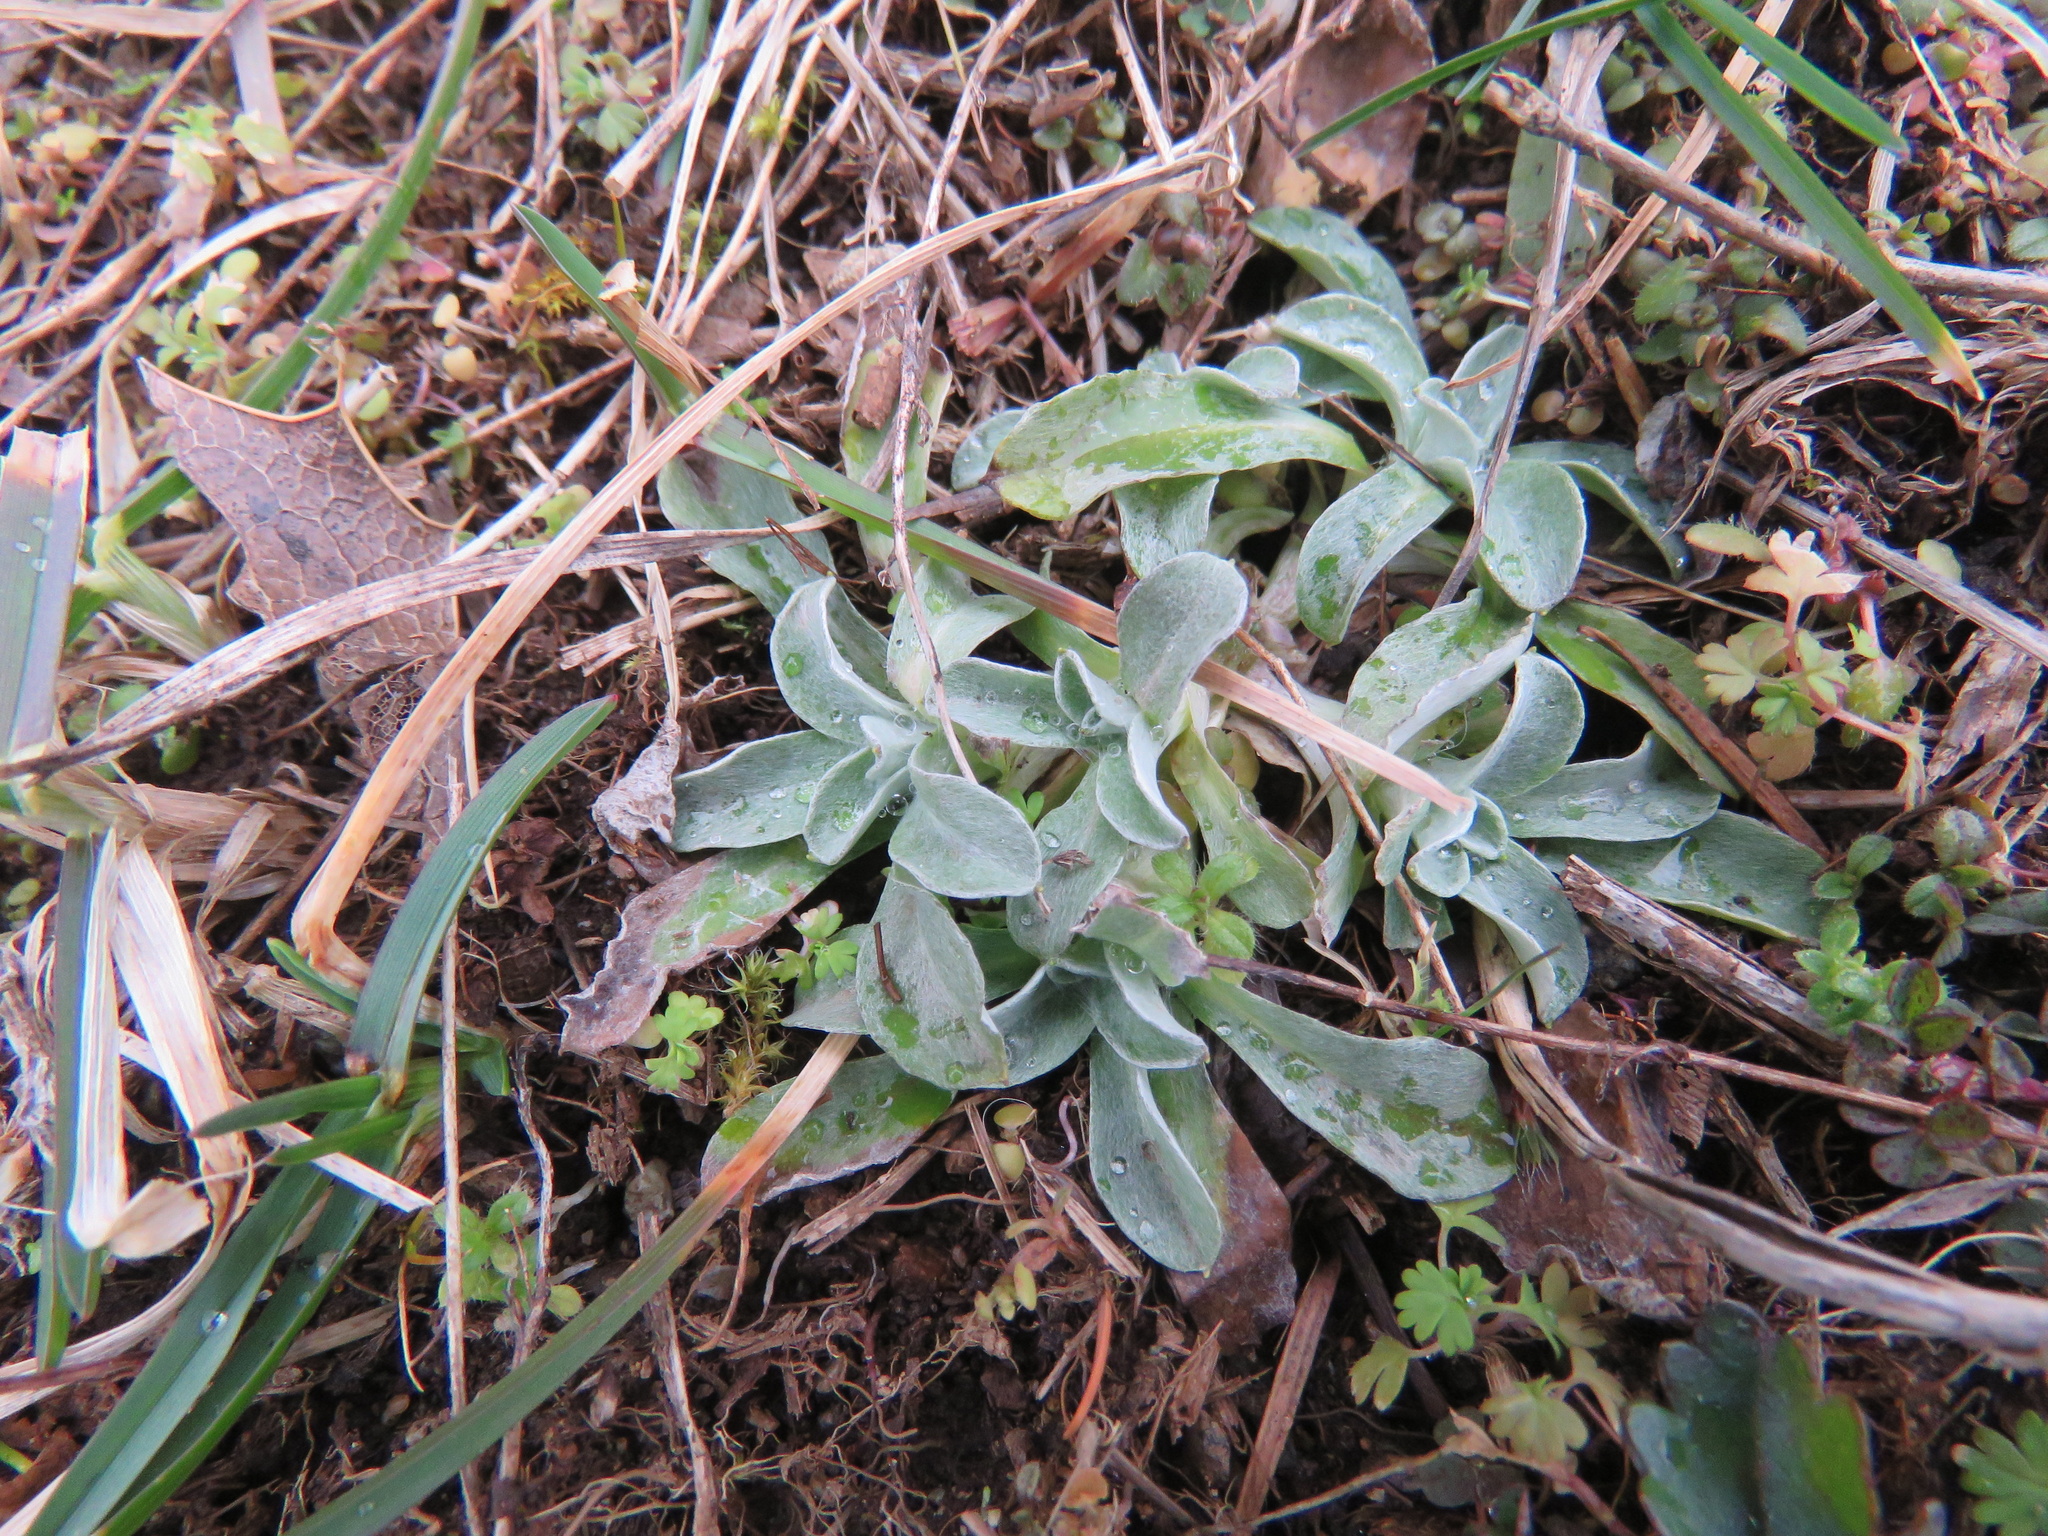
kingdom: Plantae
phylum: Tracheophyta
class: Magnoliopsida
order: Asterales
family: Asteraceae
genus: Gamochaeta
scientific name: Gamochaeta ustulata
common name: Pacific cudweed
